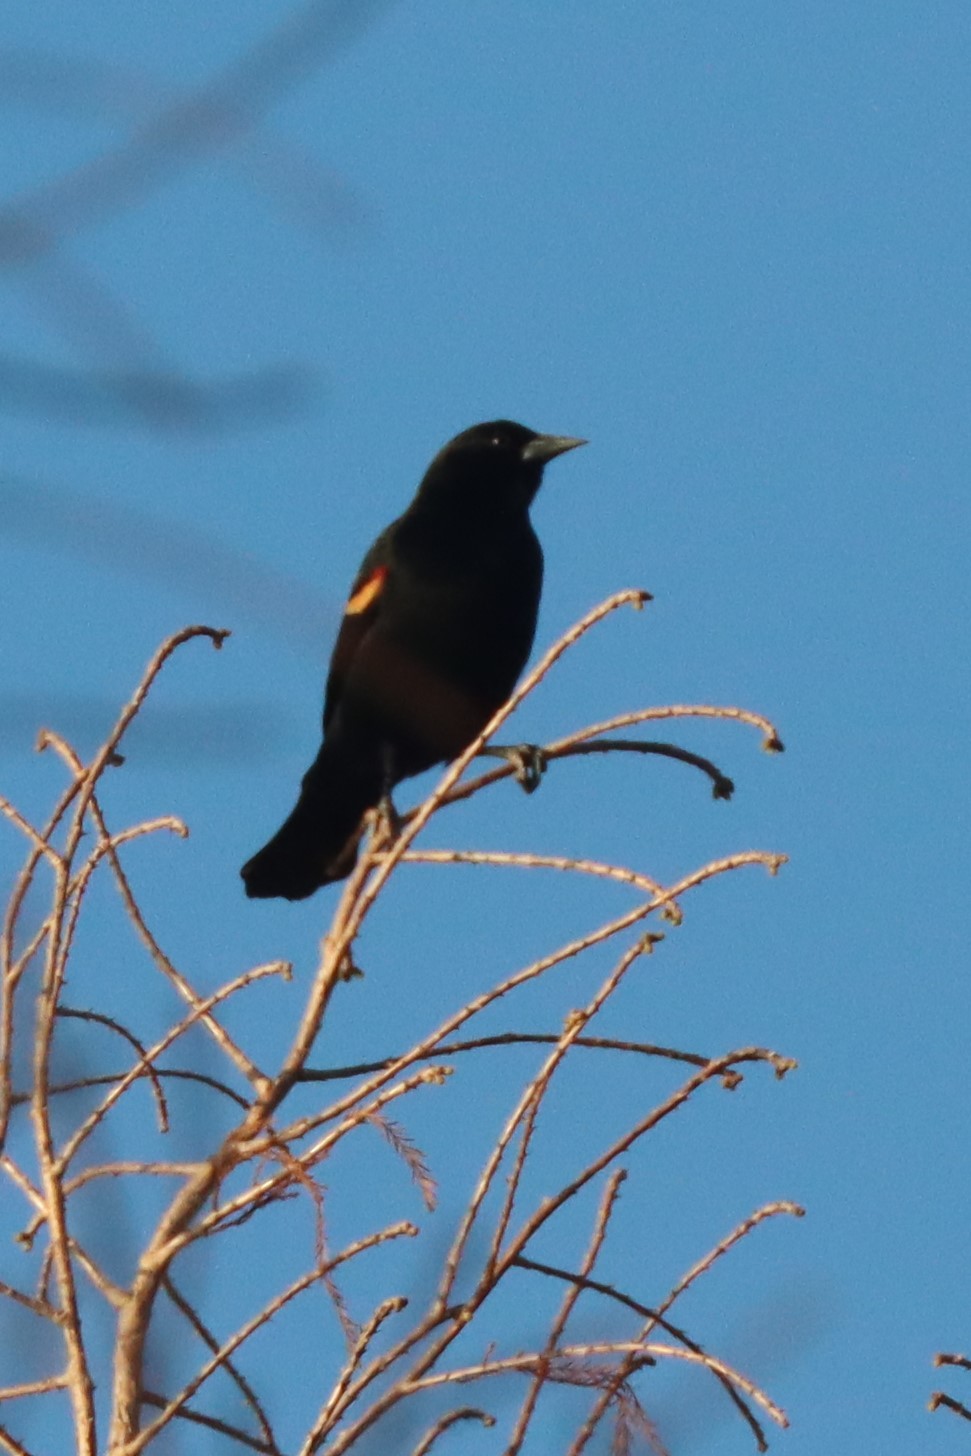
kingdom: Animalia
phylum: Chordata
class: Aves
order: Passeriformes
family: Icteridae
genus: Agelaius
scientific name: Agelaius phoeniceus
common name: Red-winged blackbird
